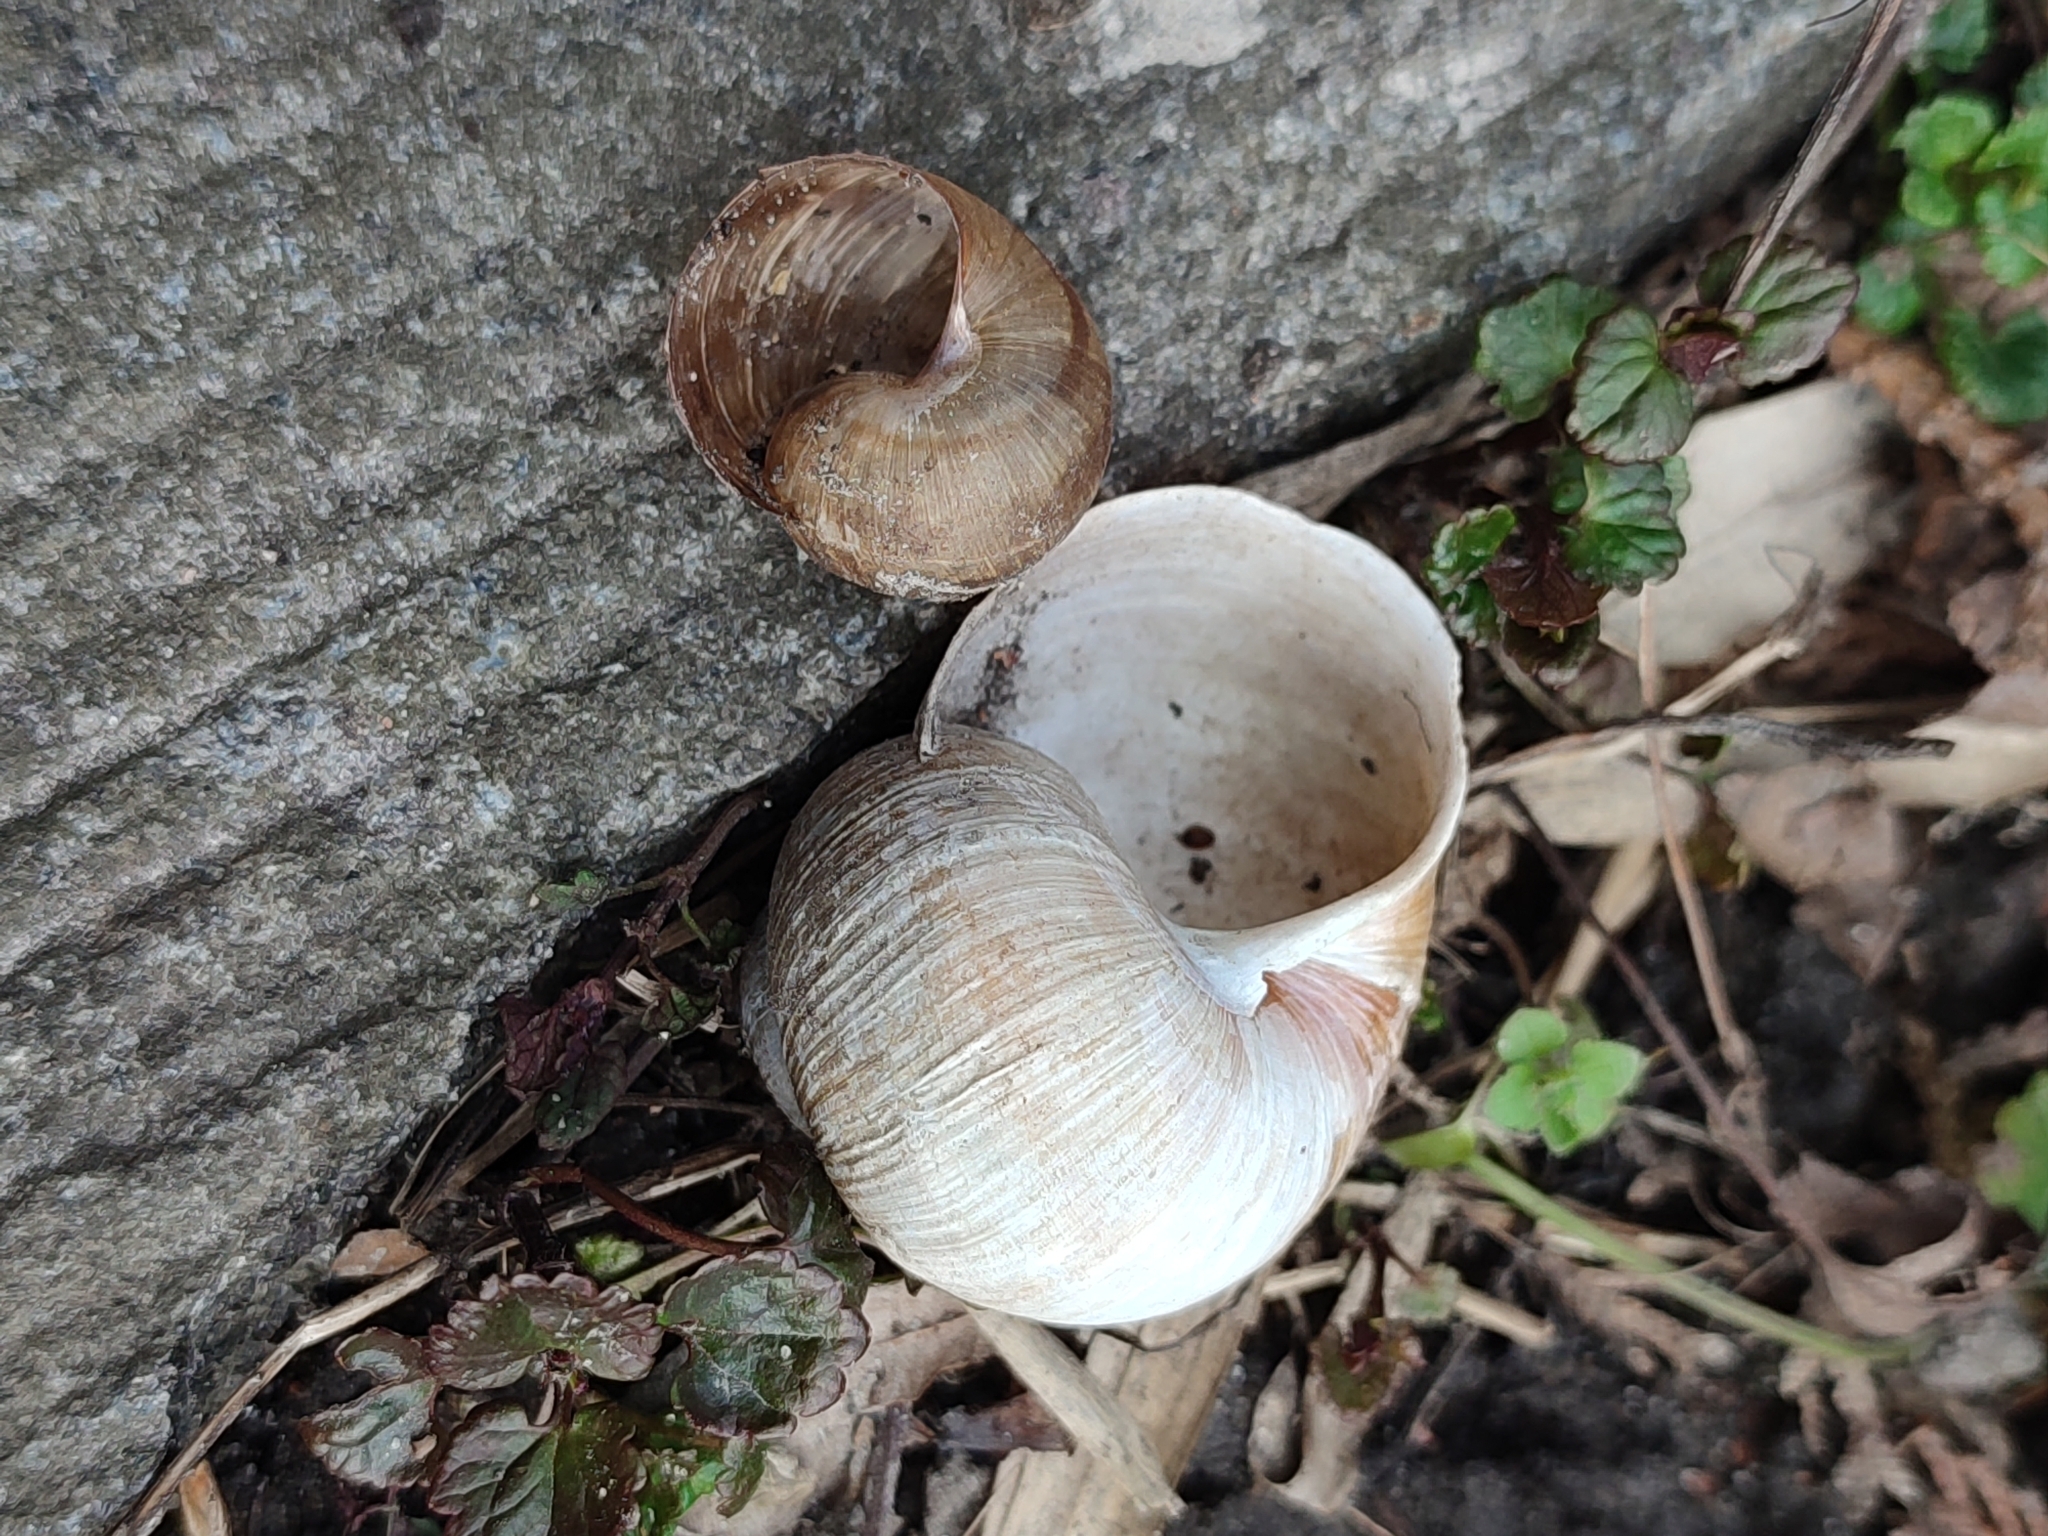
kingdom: Animalia
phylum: Mollusca
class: Gastropoda
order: Stylommatophora
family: Helicidae
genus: Helix
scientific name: Helix pomatia
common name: Roman snail
